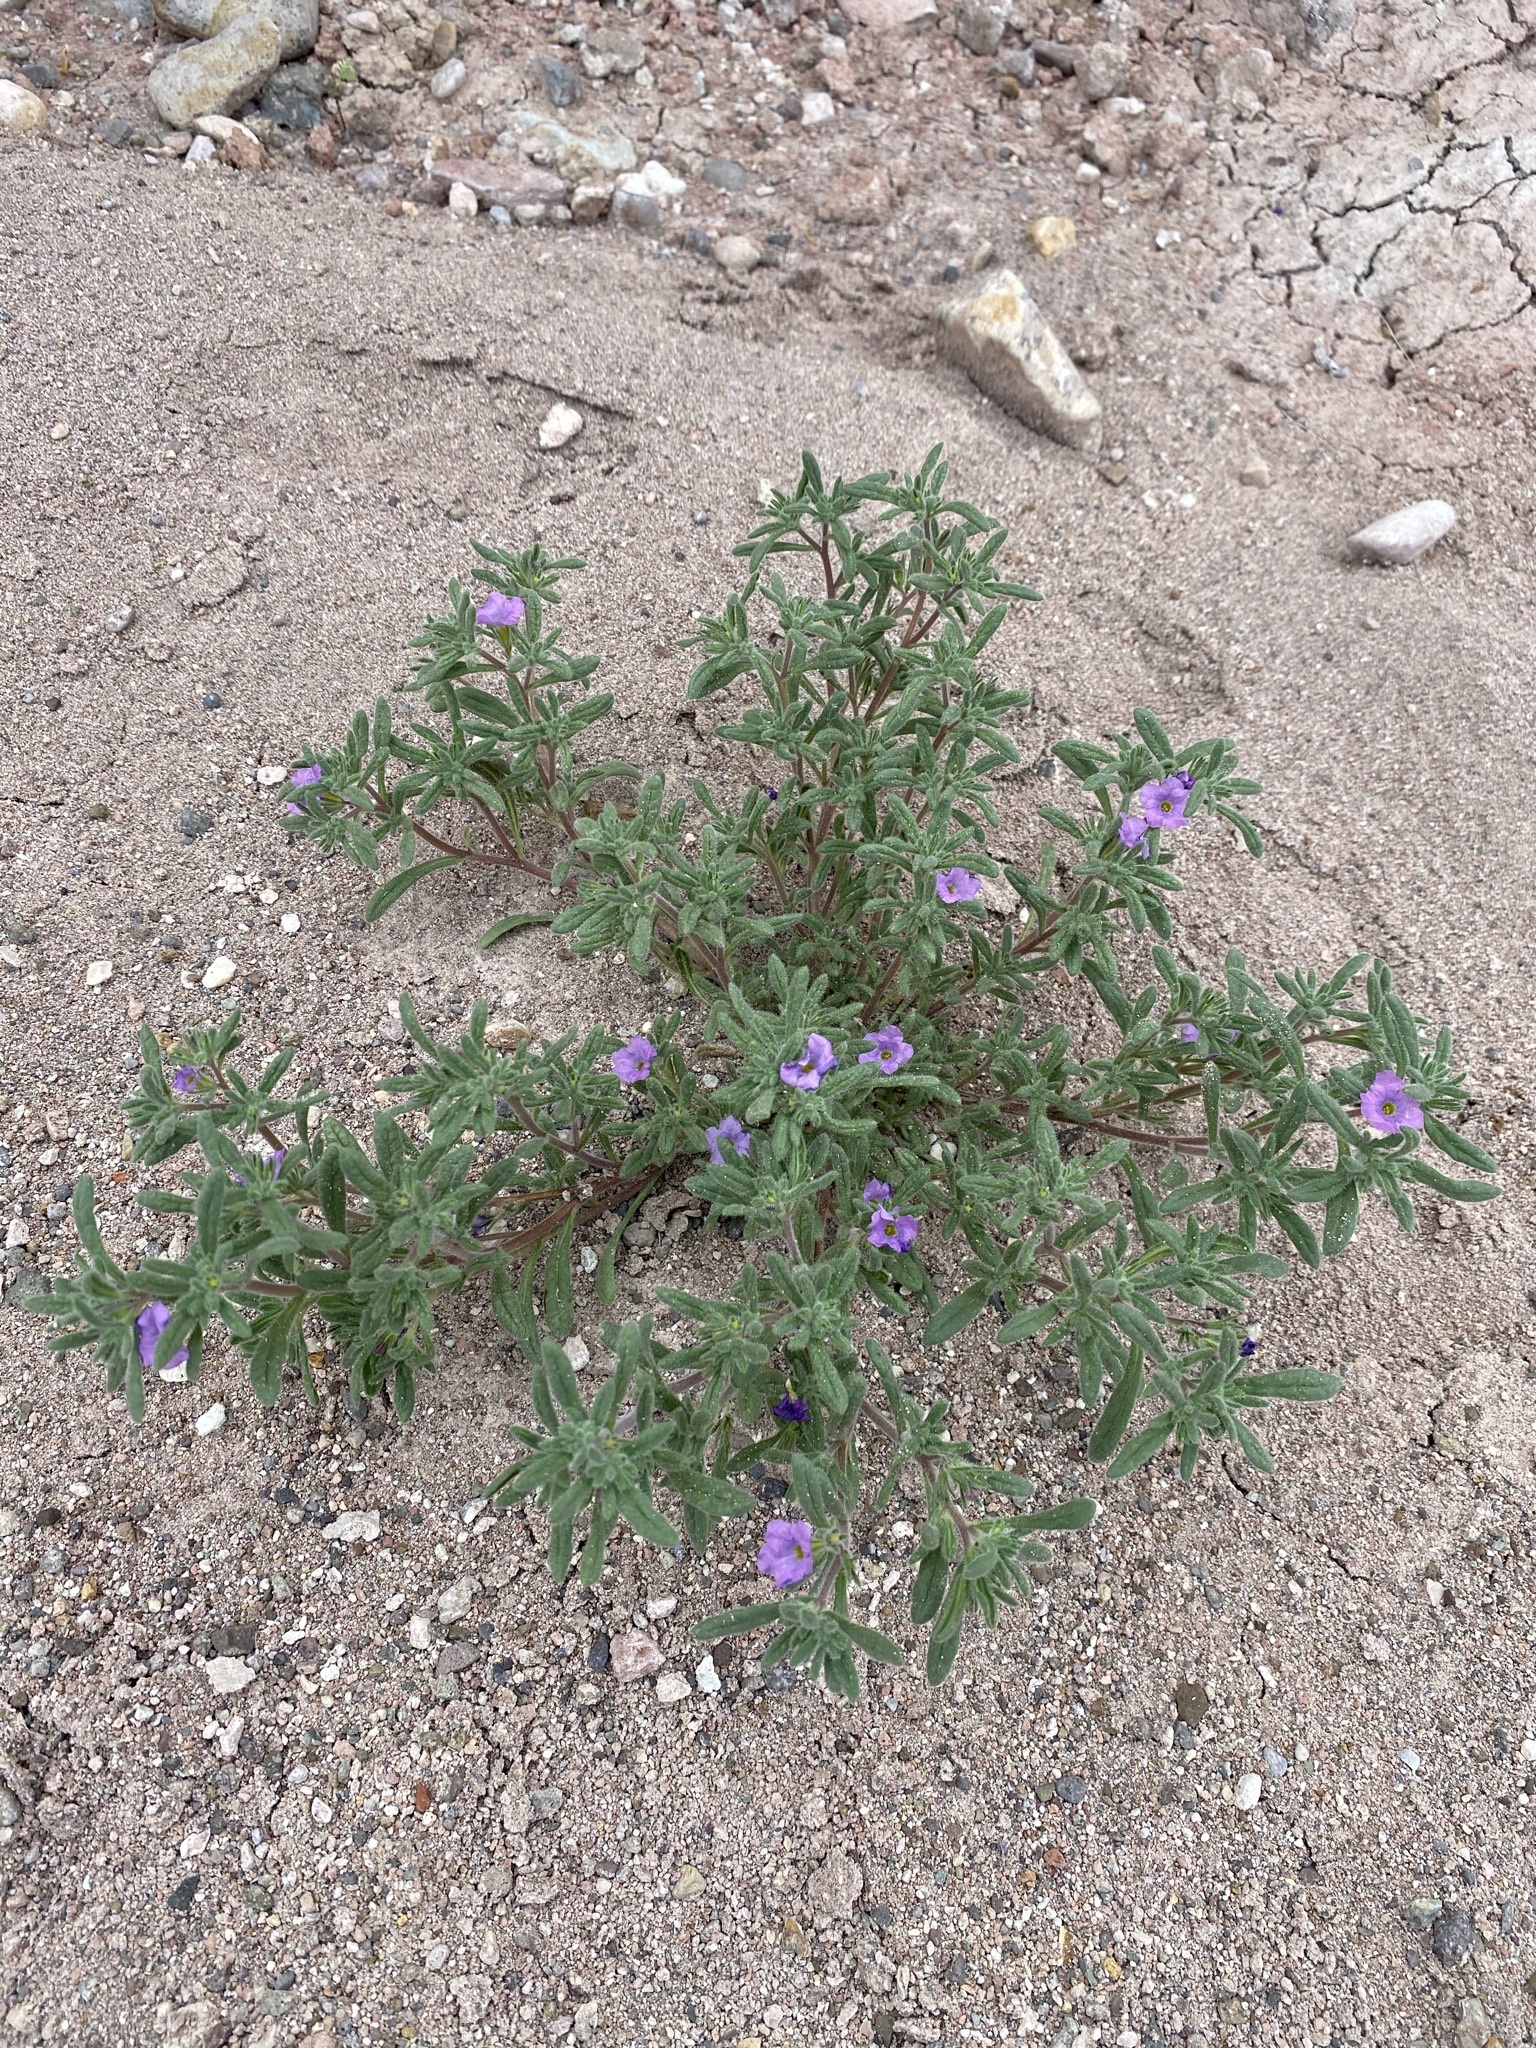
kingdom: Plantae
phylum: Tracheophyta
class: Magnoliopsida
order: Boraginales
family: Namaceae
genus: Nama
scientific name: Nama hispida
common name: Bristly nama
